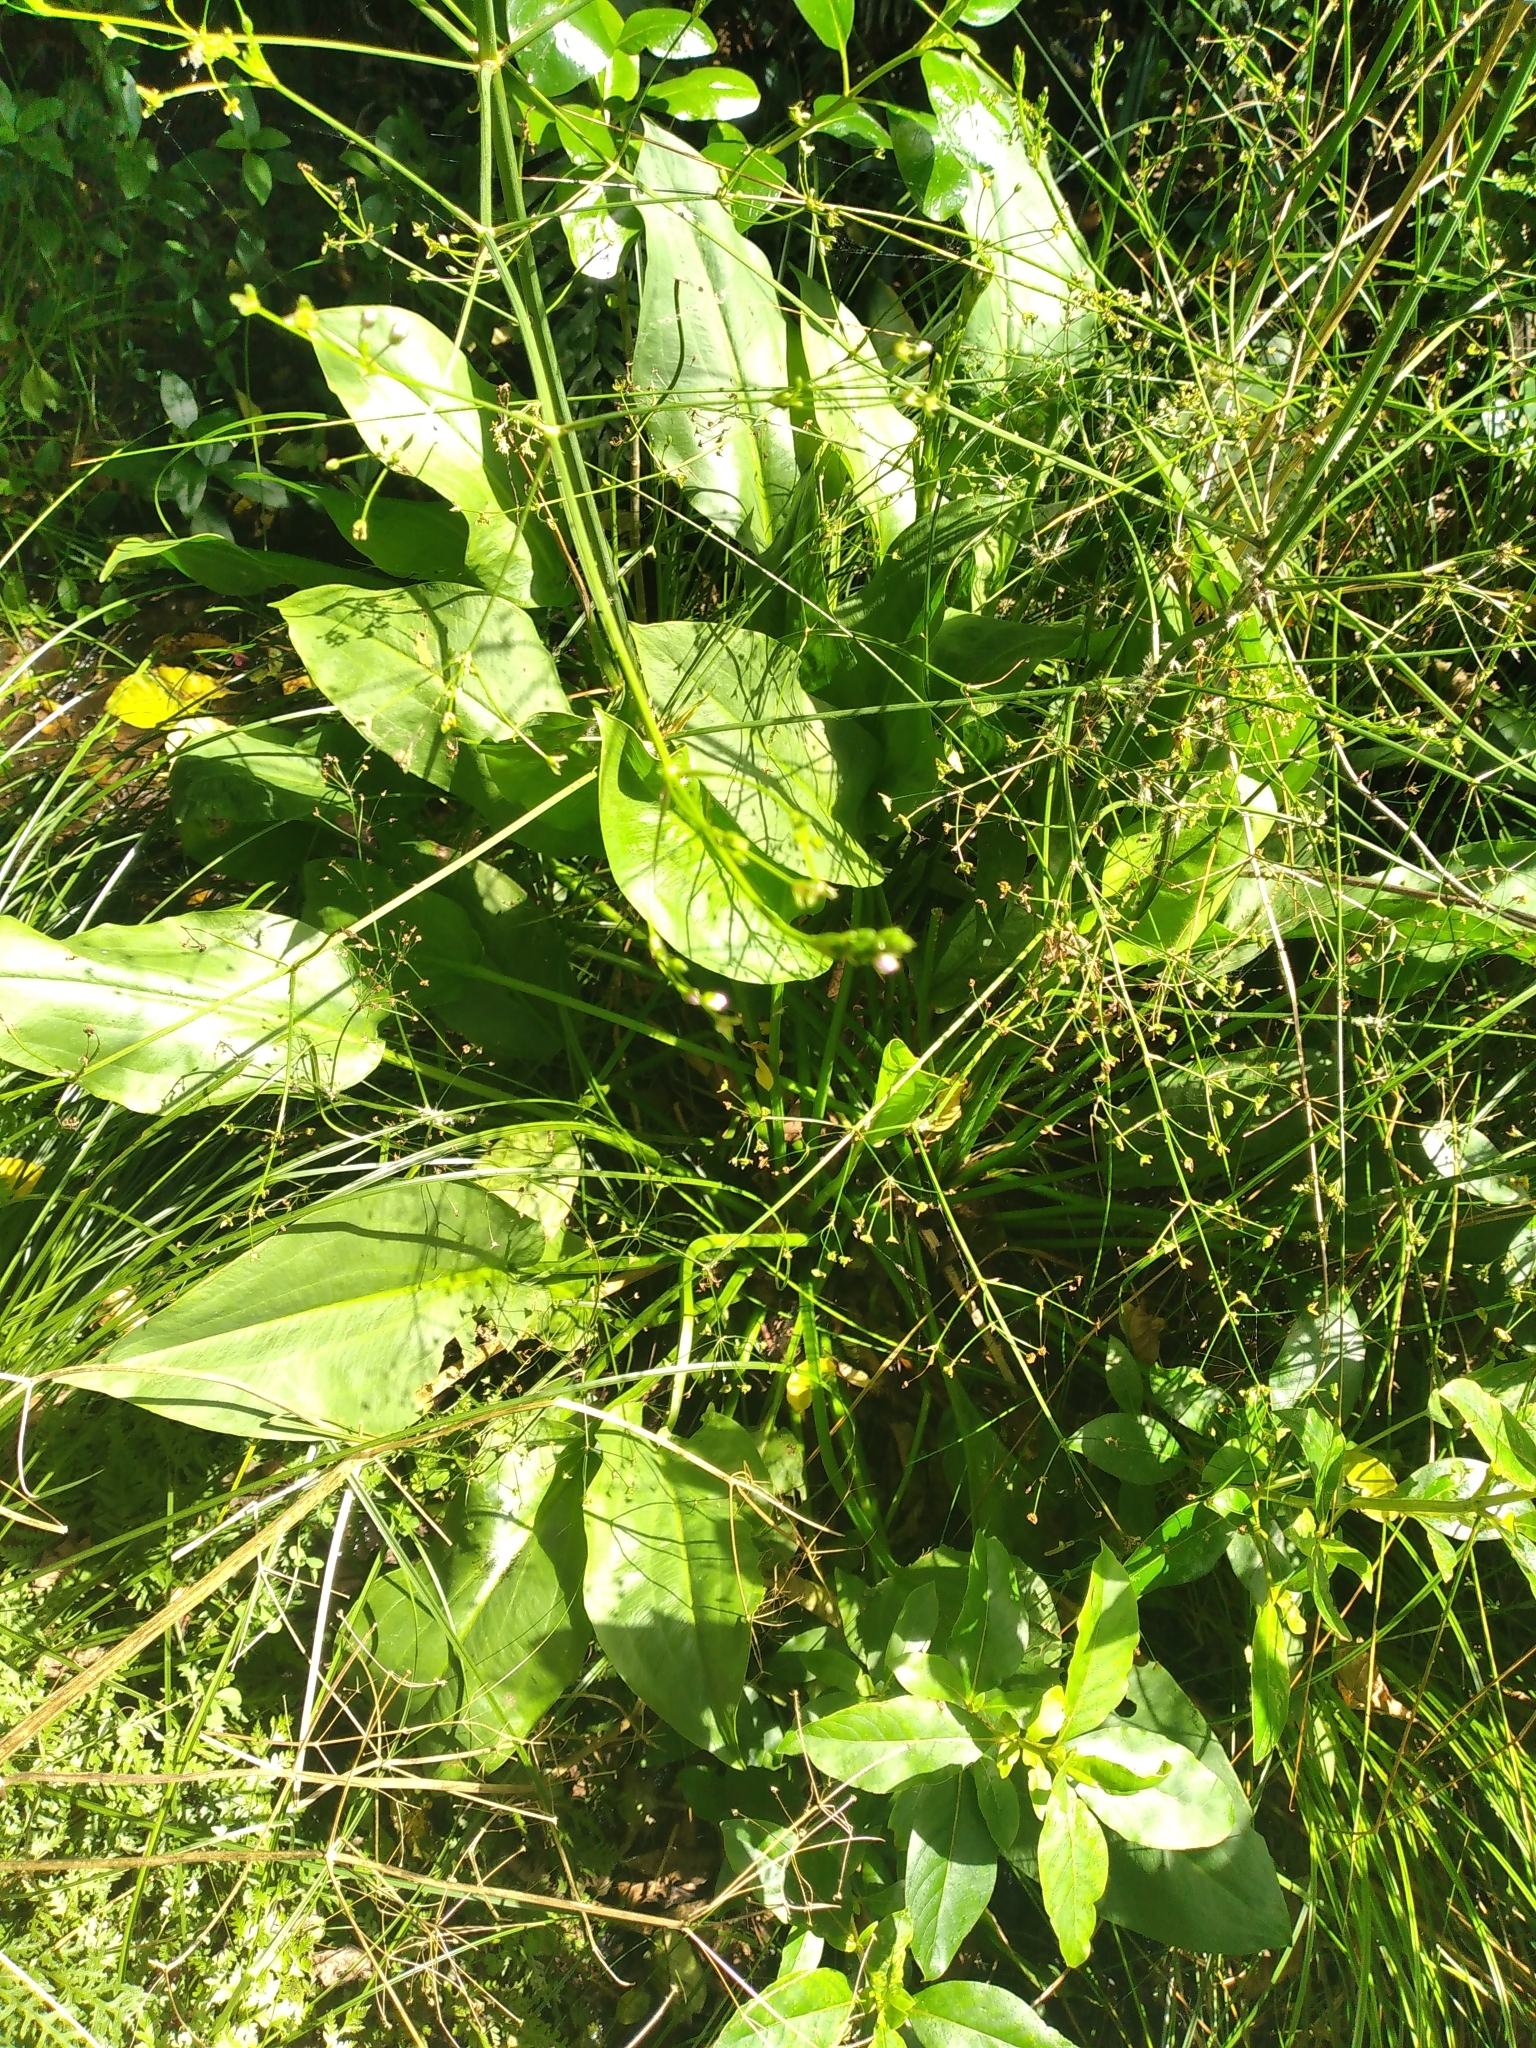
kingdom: Plantae
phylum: Tracheophyta
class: Liliopsida
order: Alismatales
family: Alismataceae
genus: Alisma
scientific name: Alisma plantago-aquatica
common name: Water-plantain
